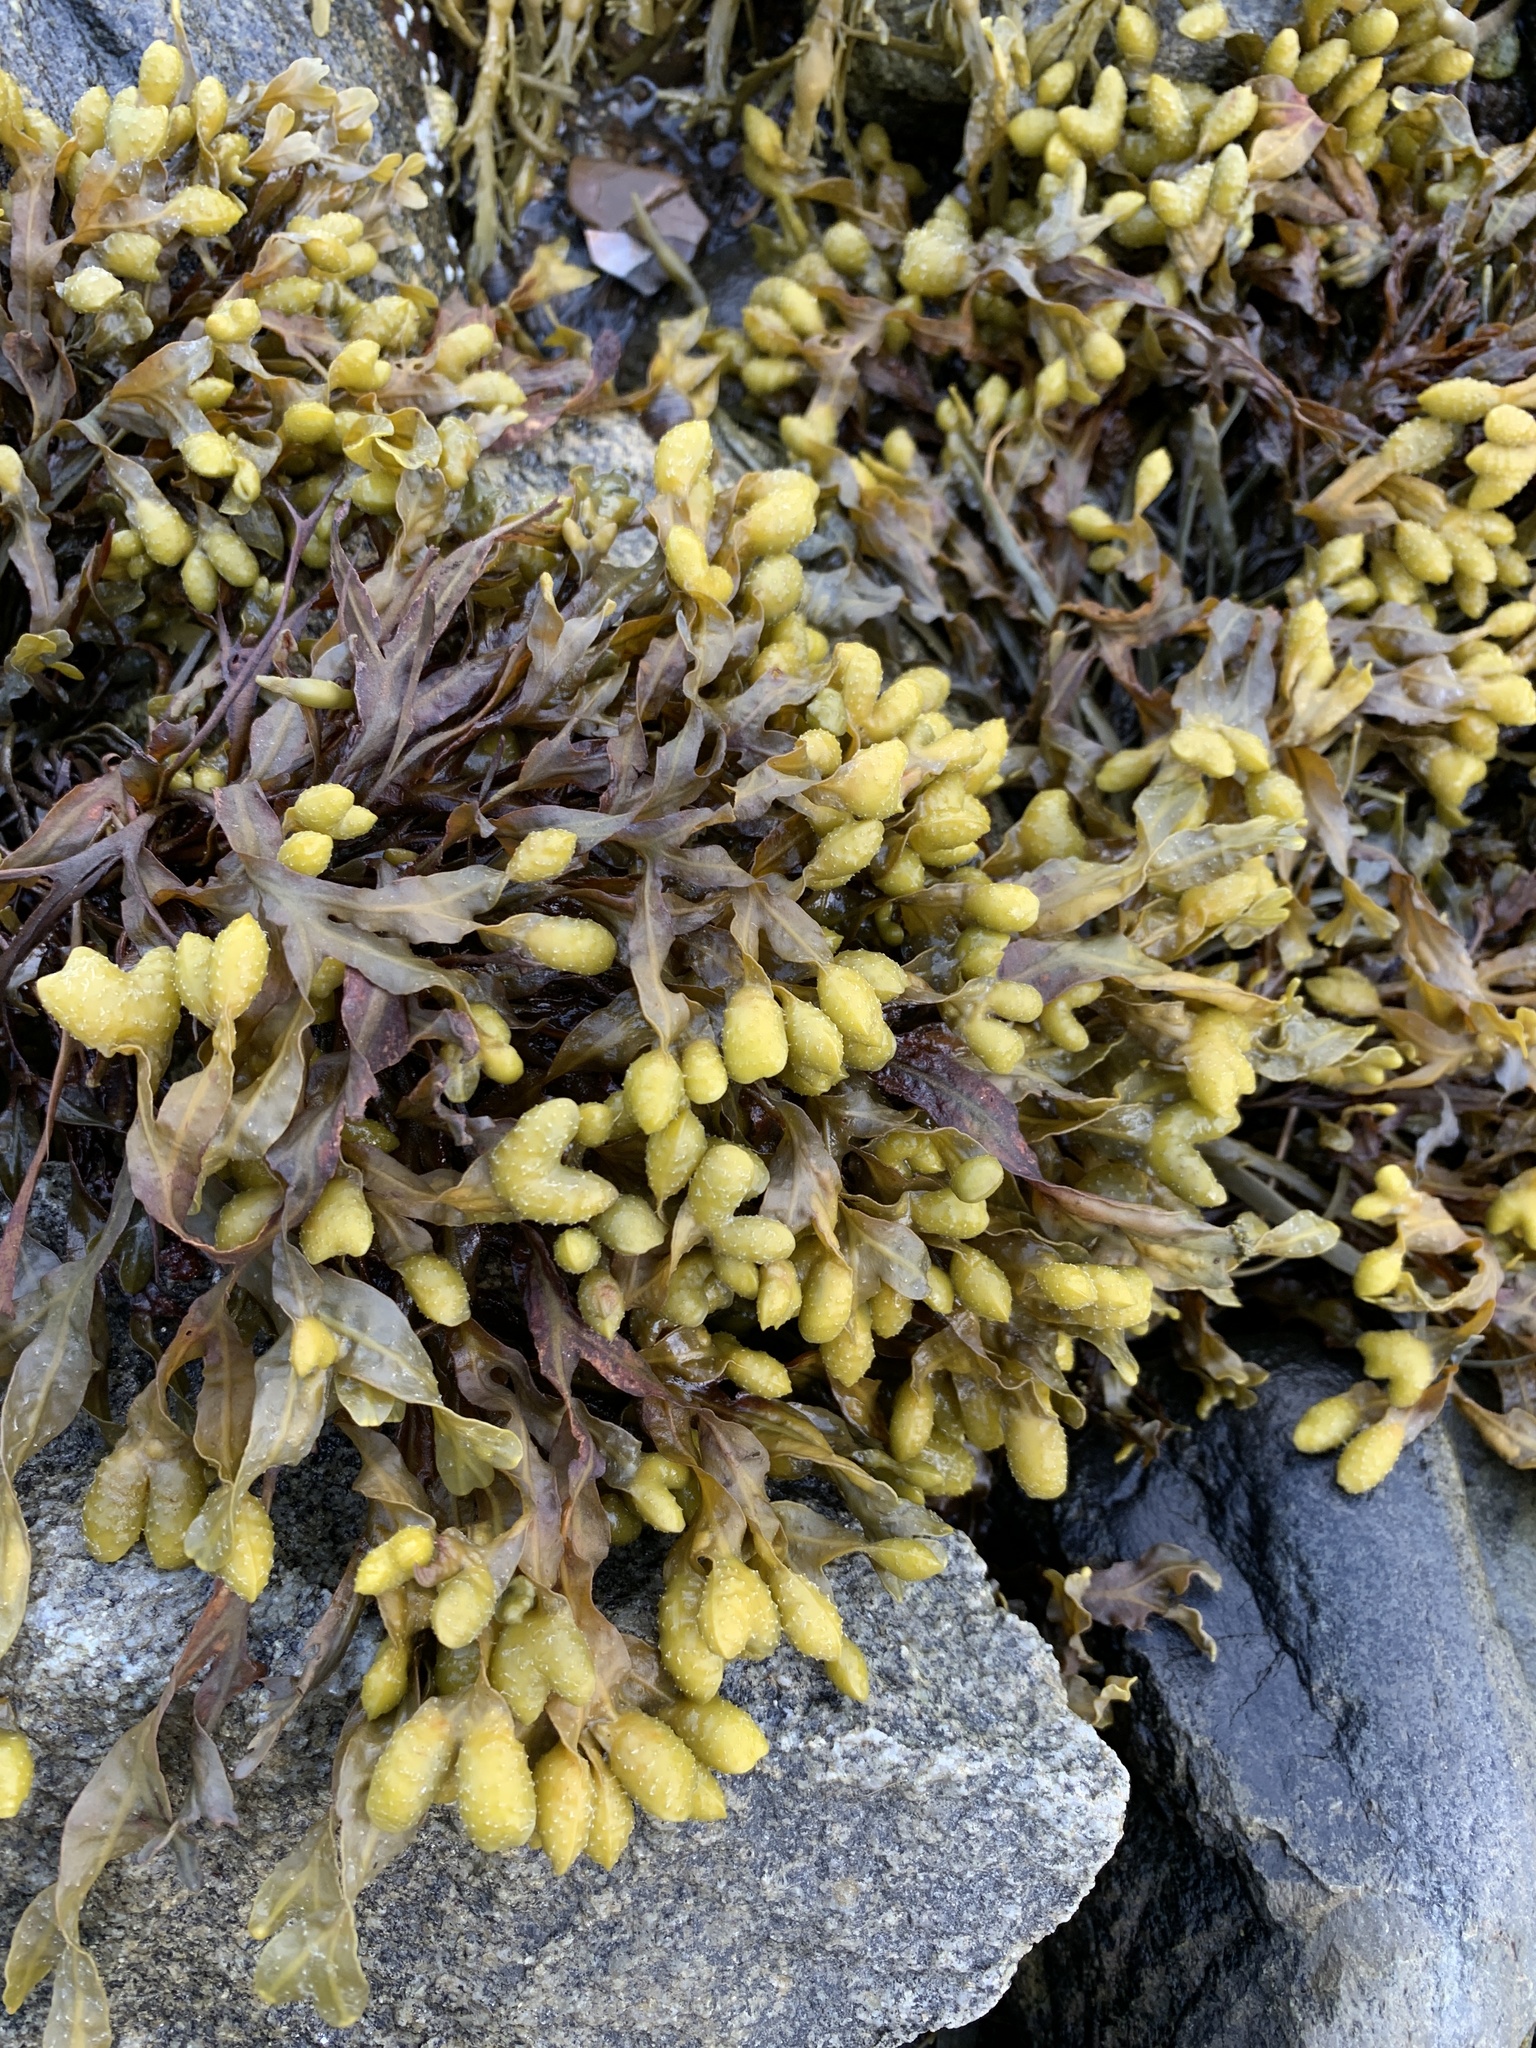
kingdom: Chromista
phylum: Ochrophyta
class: Phaeophyceae
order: Fucales
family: Fucaceae
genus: Fucus
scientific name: Fucus spiralis
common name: Spiral wrack
